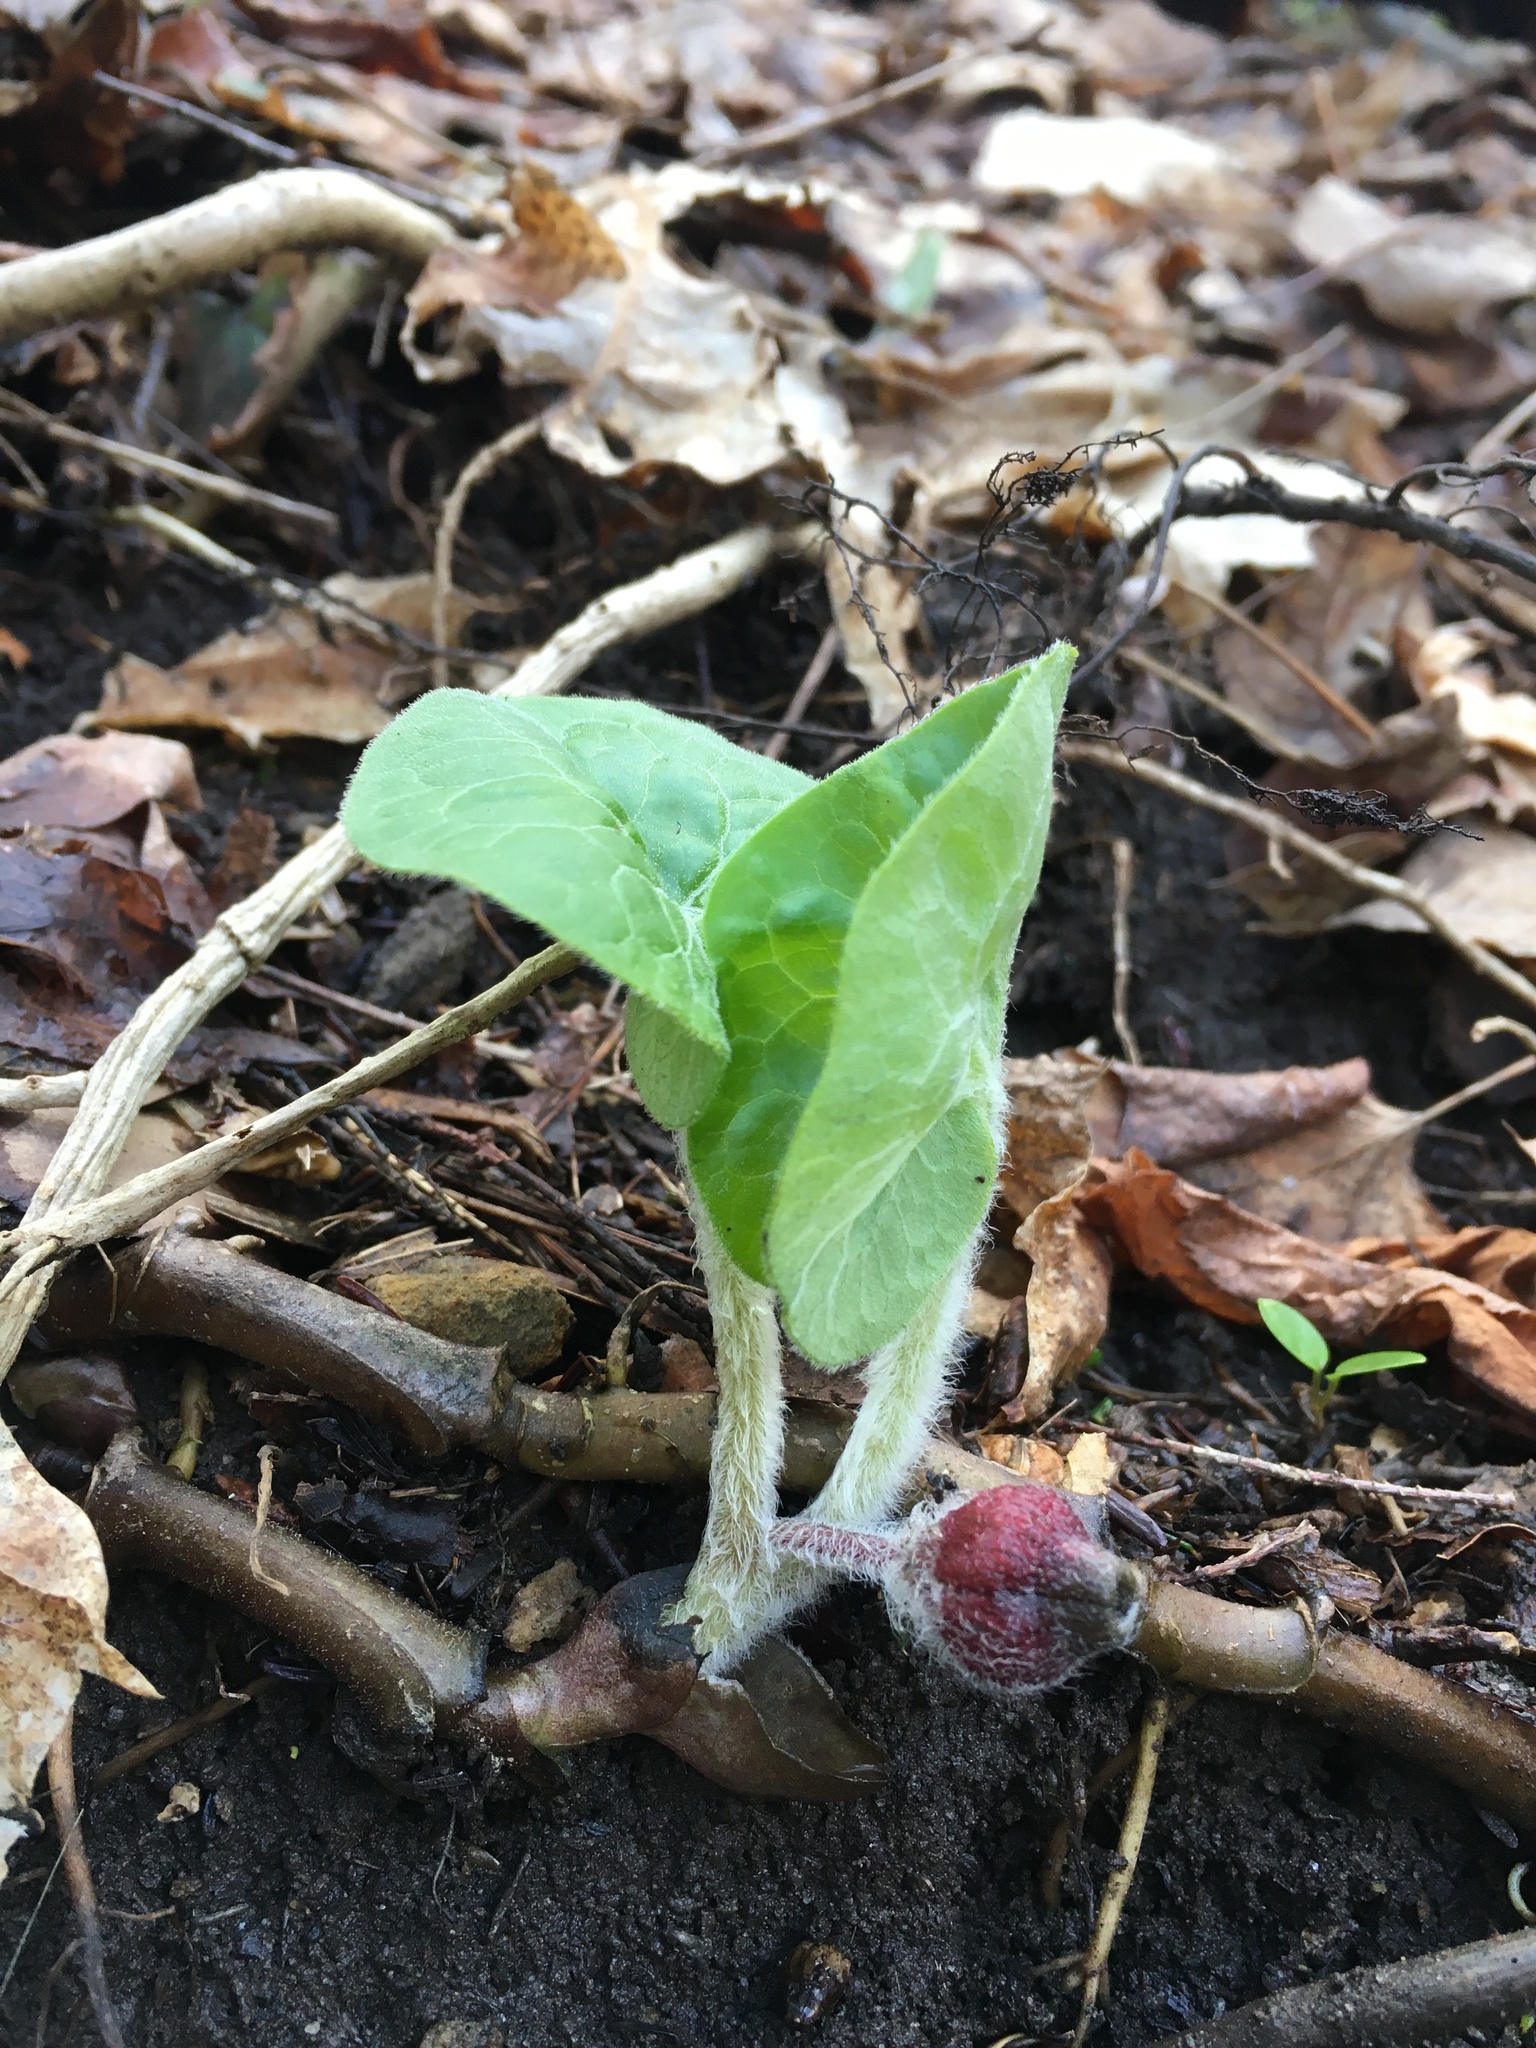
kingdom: Plantae
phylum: Tracheophyta
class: Magnoliopsida
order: Piperales
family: Aristolochiaceae
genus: Asarum
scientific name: Asarum canadense
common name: Wild ginger
